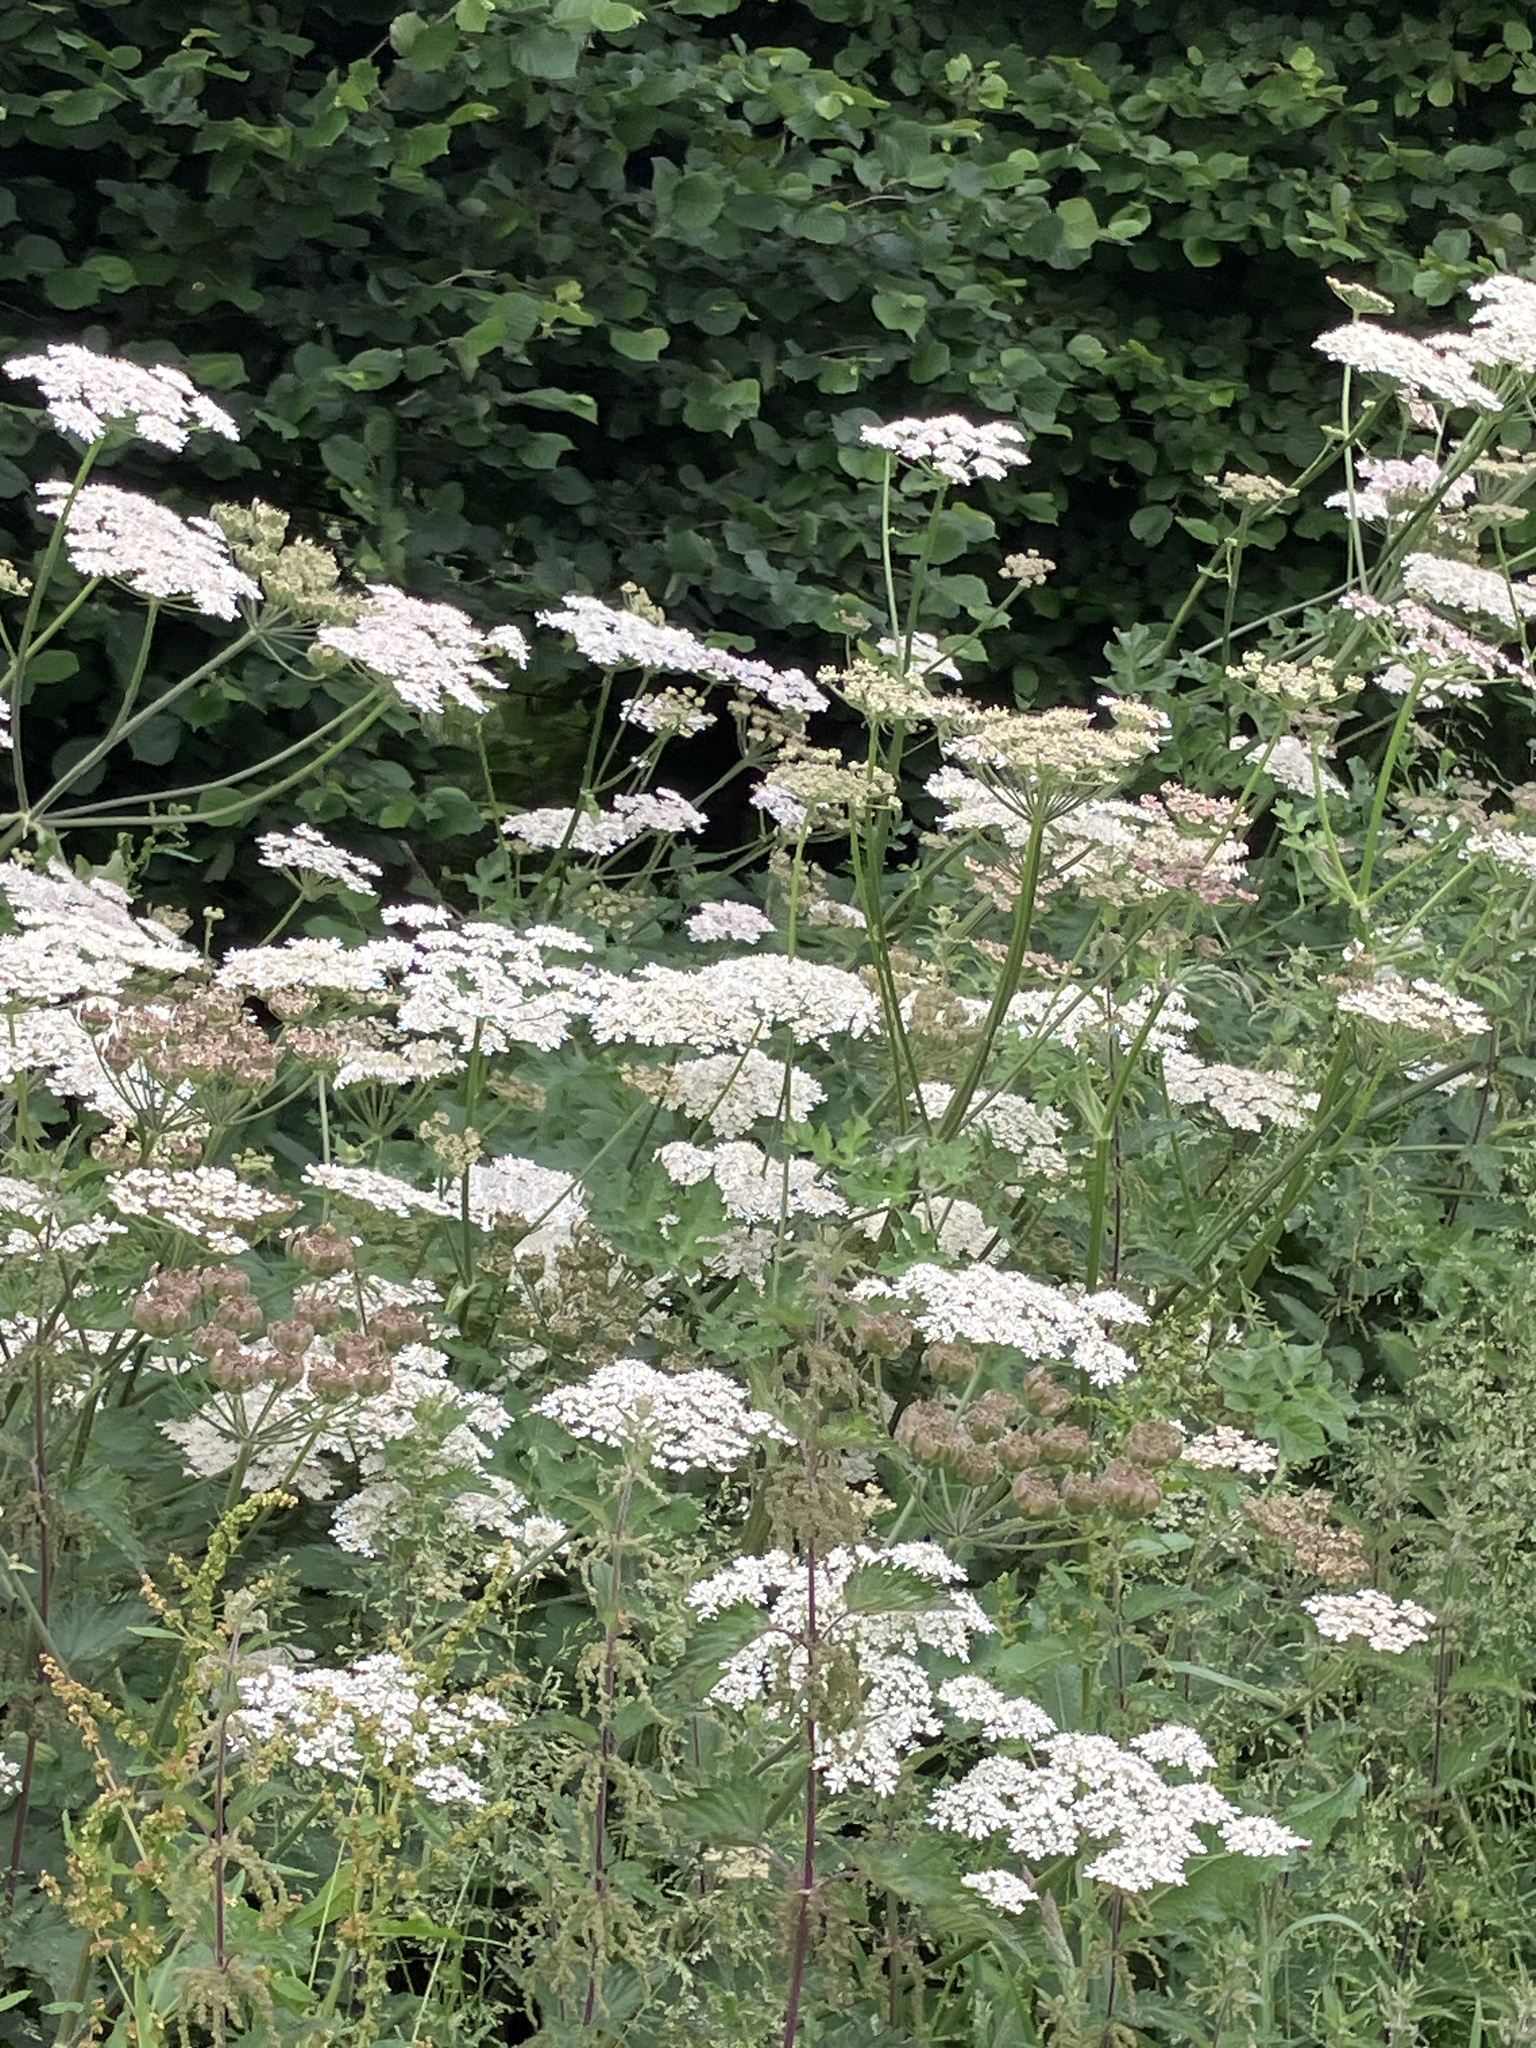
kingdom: Plantae
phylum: Tracheophyta
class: Magnoliopsida
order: Apiales
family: Apiaceae
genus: Heracleum
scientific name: Heracleum sphondylium
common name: Hogweed
